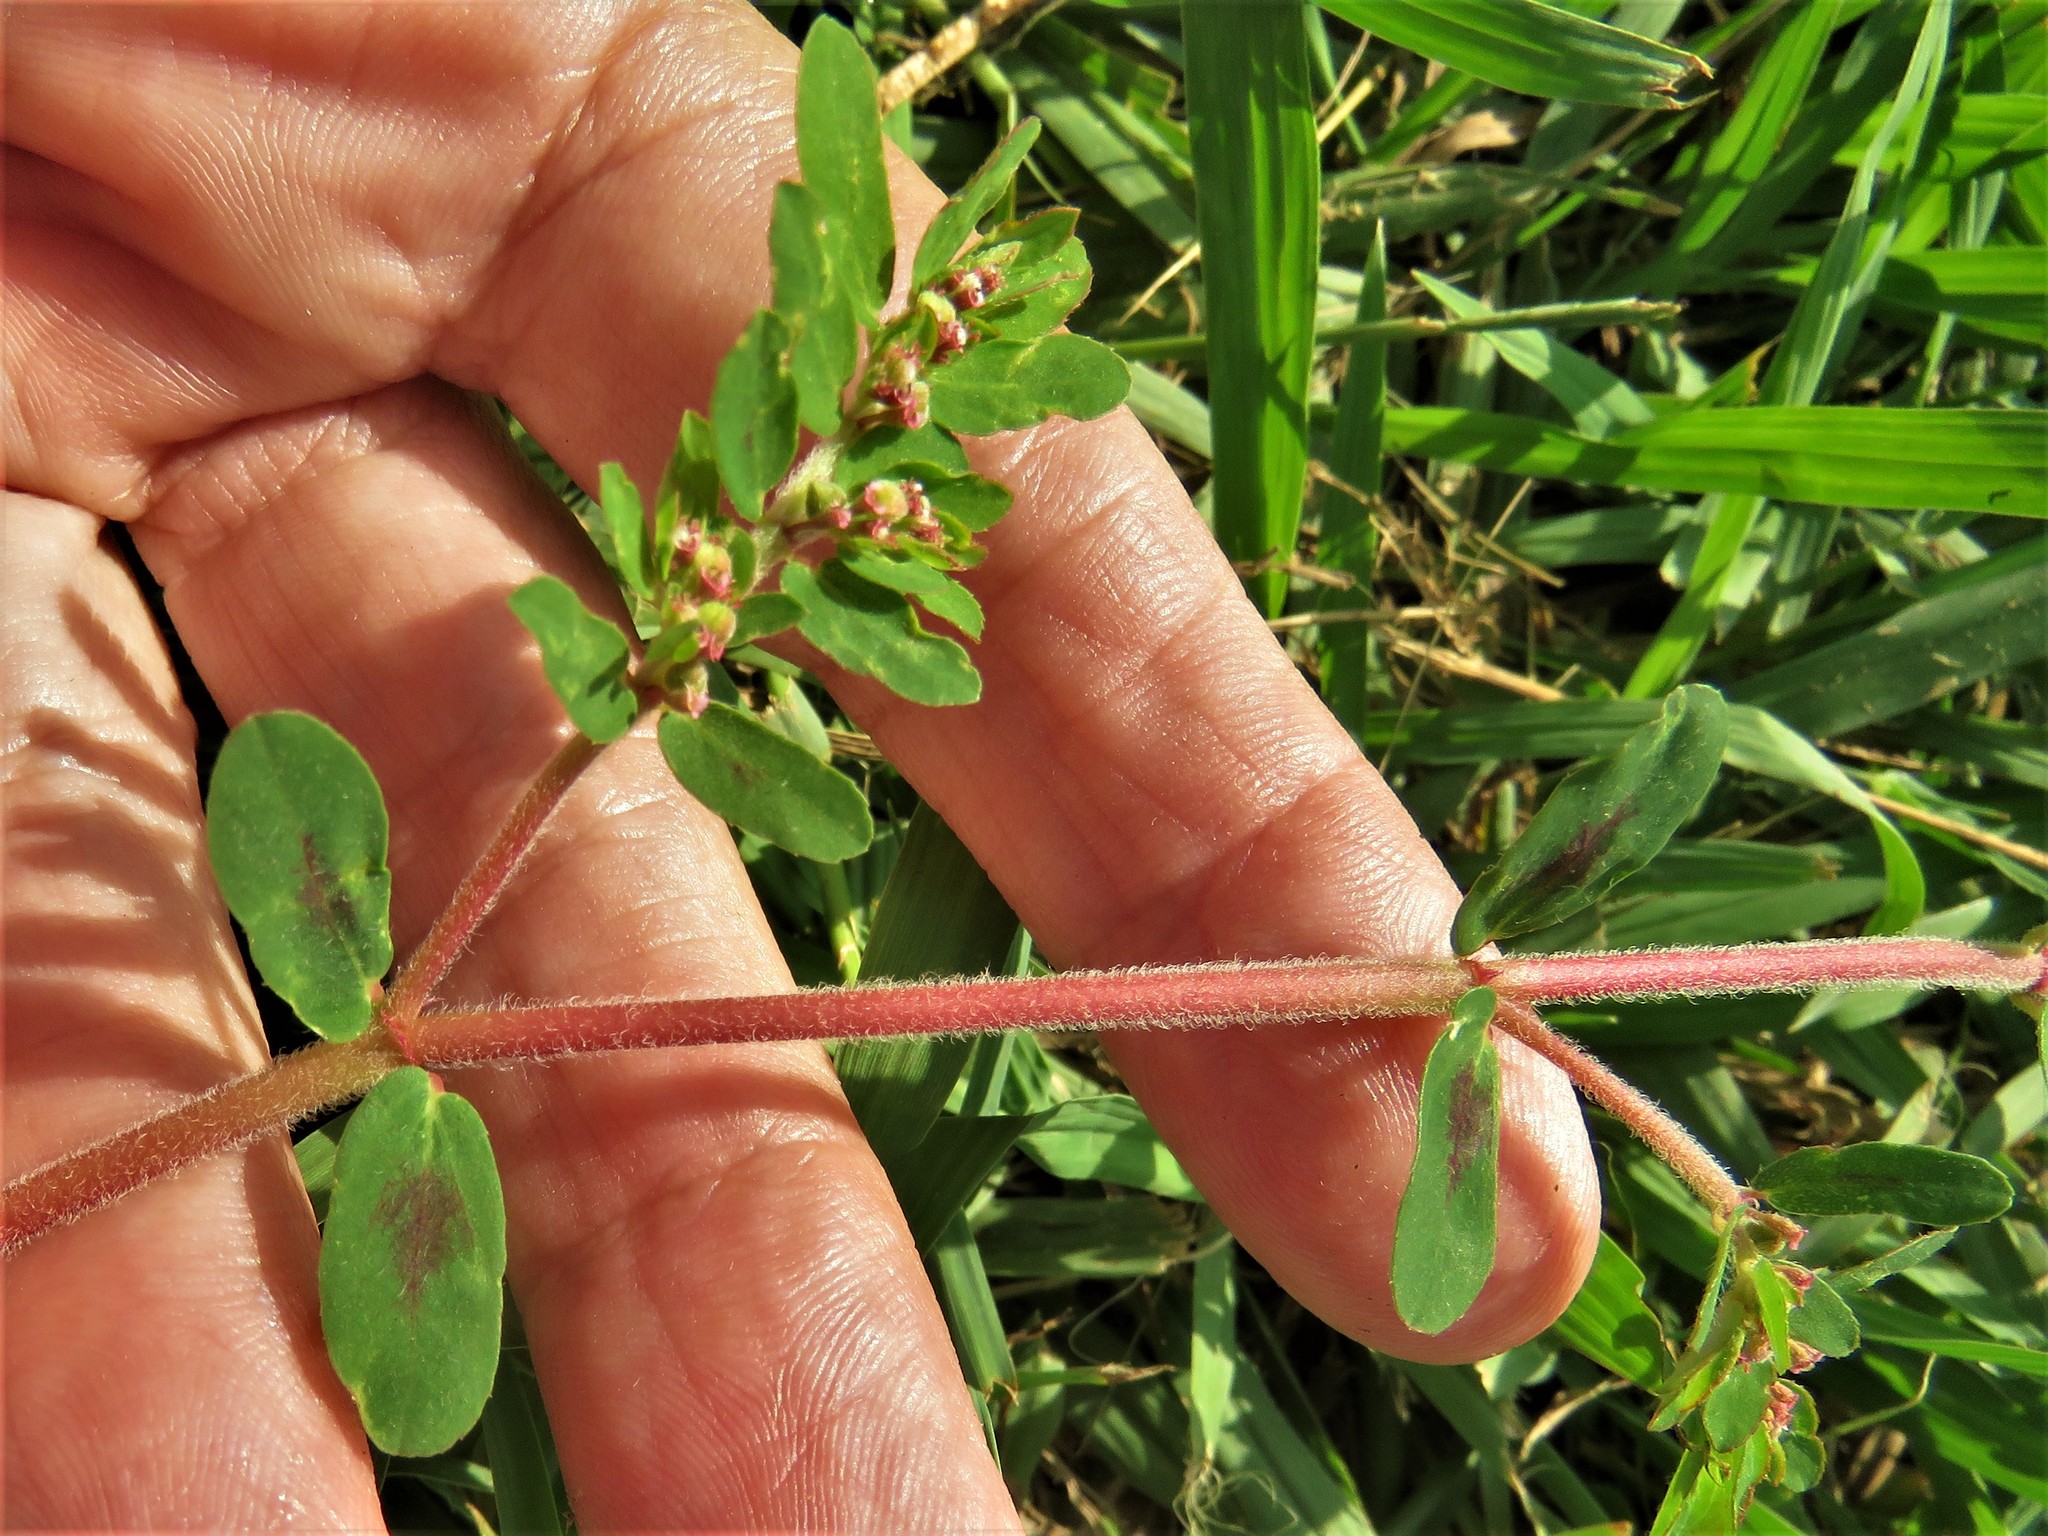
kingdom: Plantae
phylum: Tracheophyta
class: Magnoliopsida
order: Malpighiales
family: Euphorbiaceae
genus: Euphorbia
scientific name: Euphorbia maculata
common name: Spotted spurge
